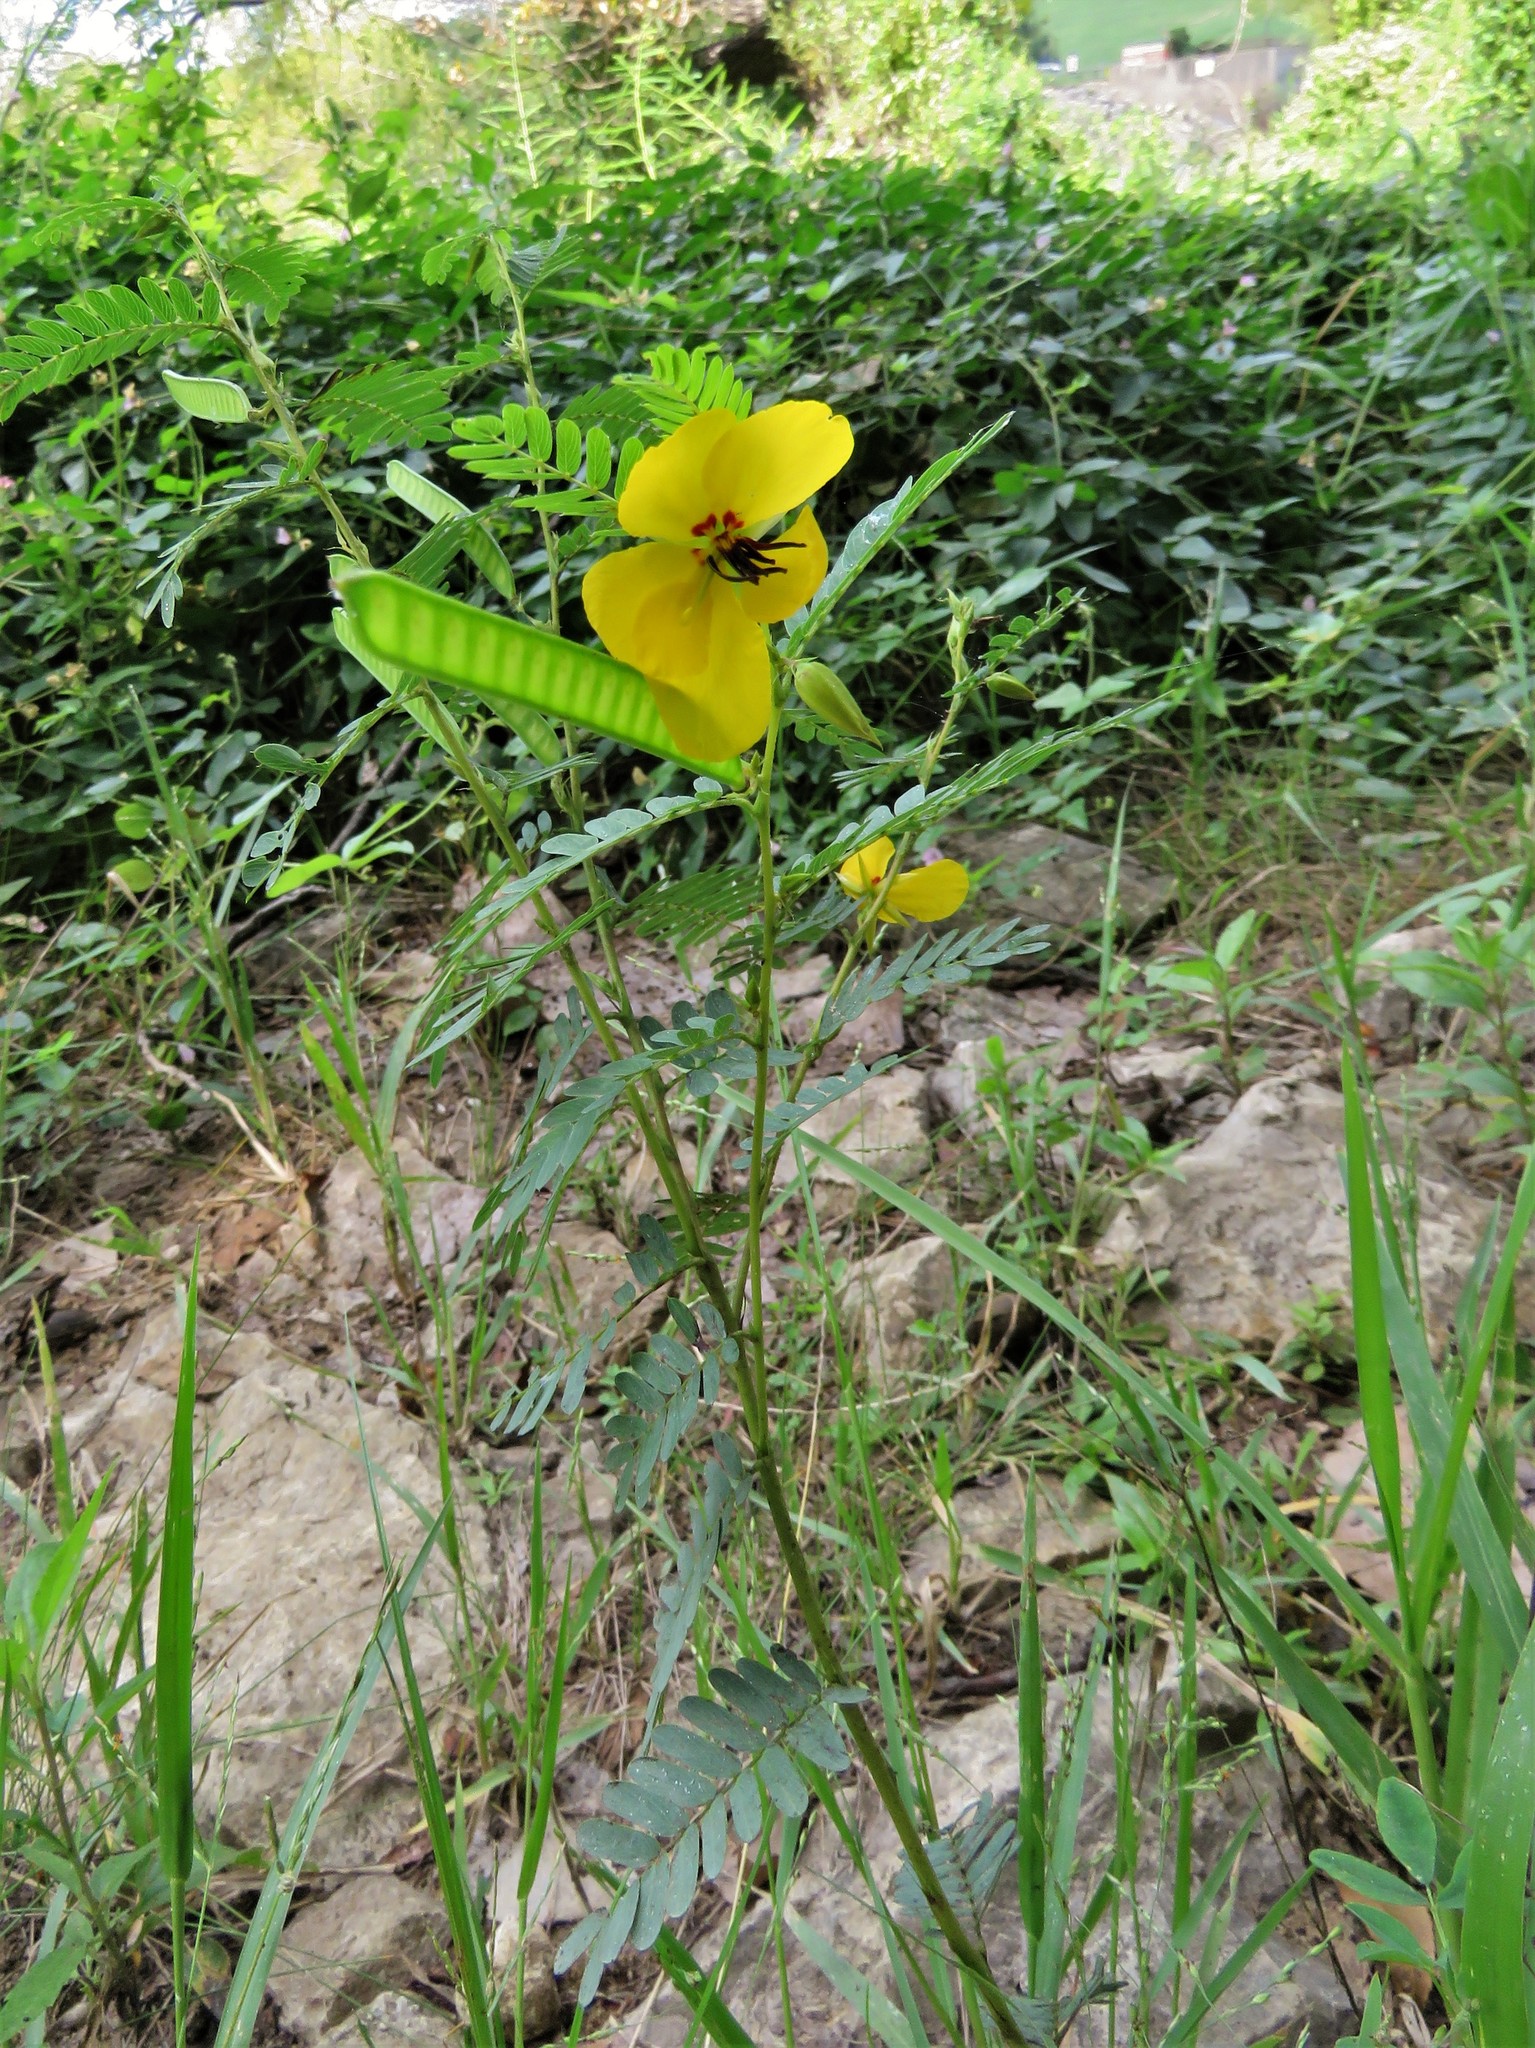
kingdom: Plantae
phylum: Tracheophyta
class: Magnoliopsida
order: Fabales
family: Fabaceae
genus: Chamaecrista
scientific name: Chamaecrista fasciculata
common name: Golden cassia
